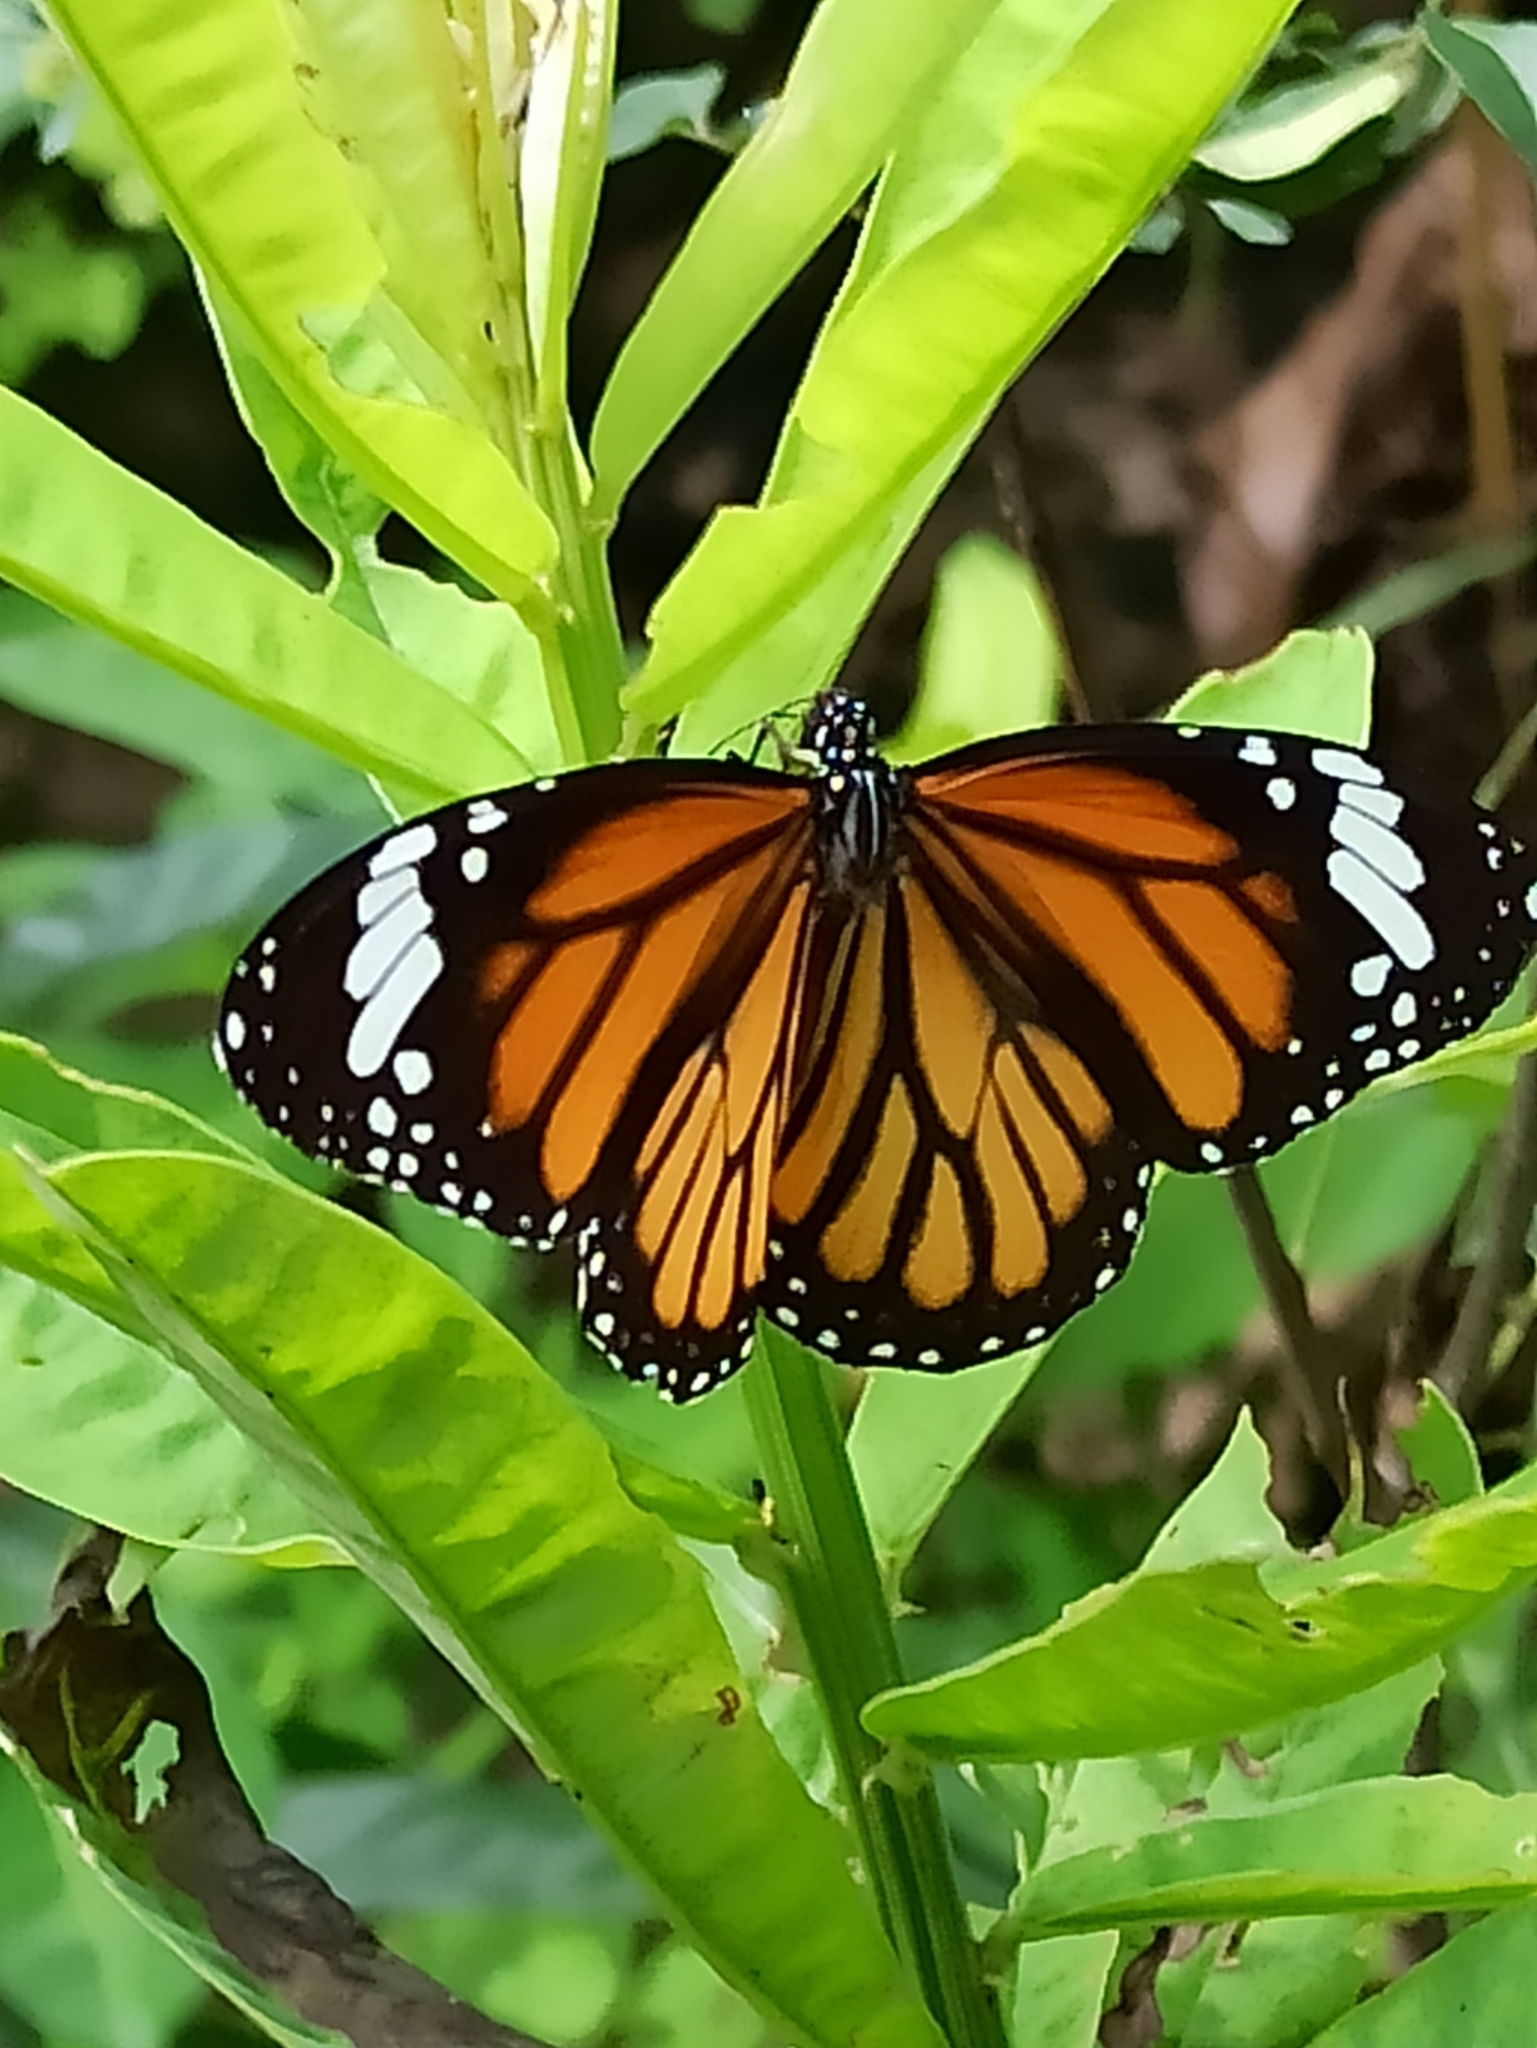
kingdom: Animalia
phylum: Arthropoda
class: Insecta
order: Lepidoptera
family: Nymphalidae
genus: Danaus
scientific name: Danaus genutia
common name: Common tiger butterfly
